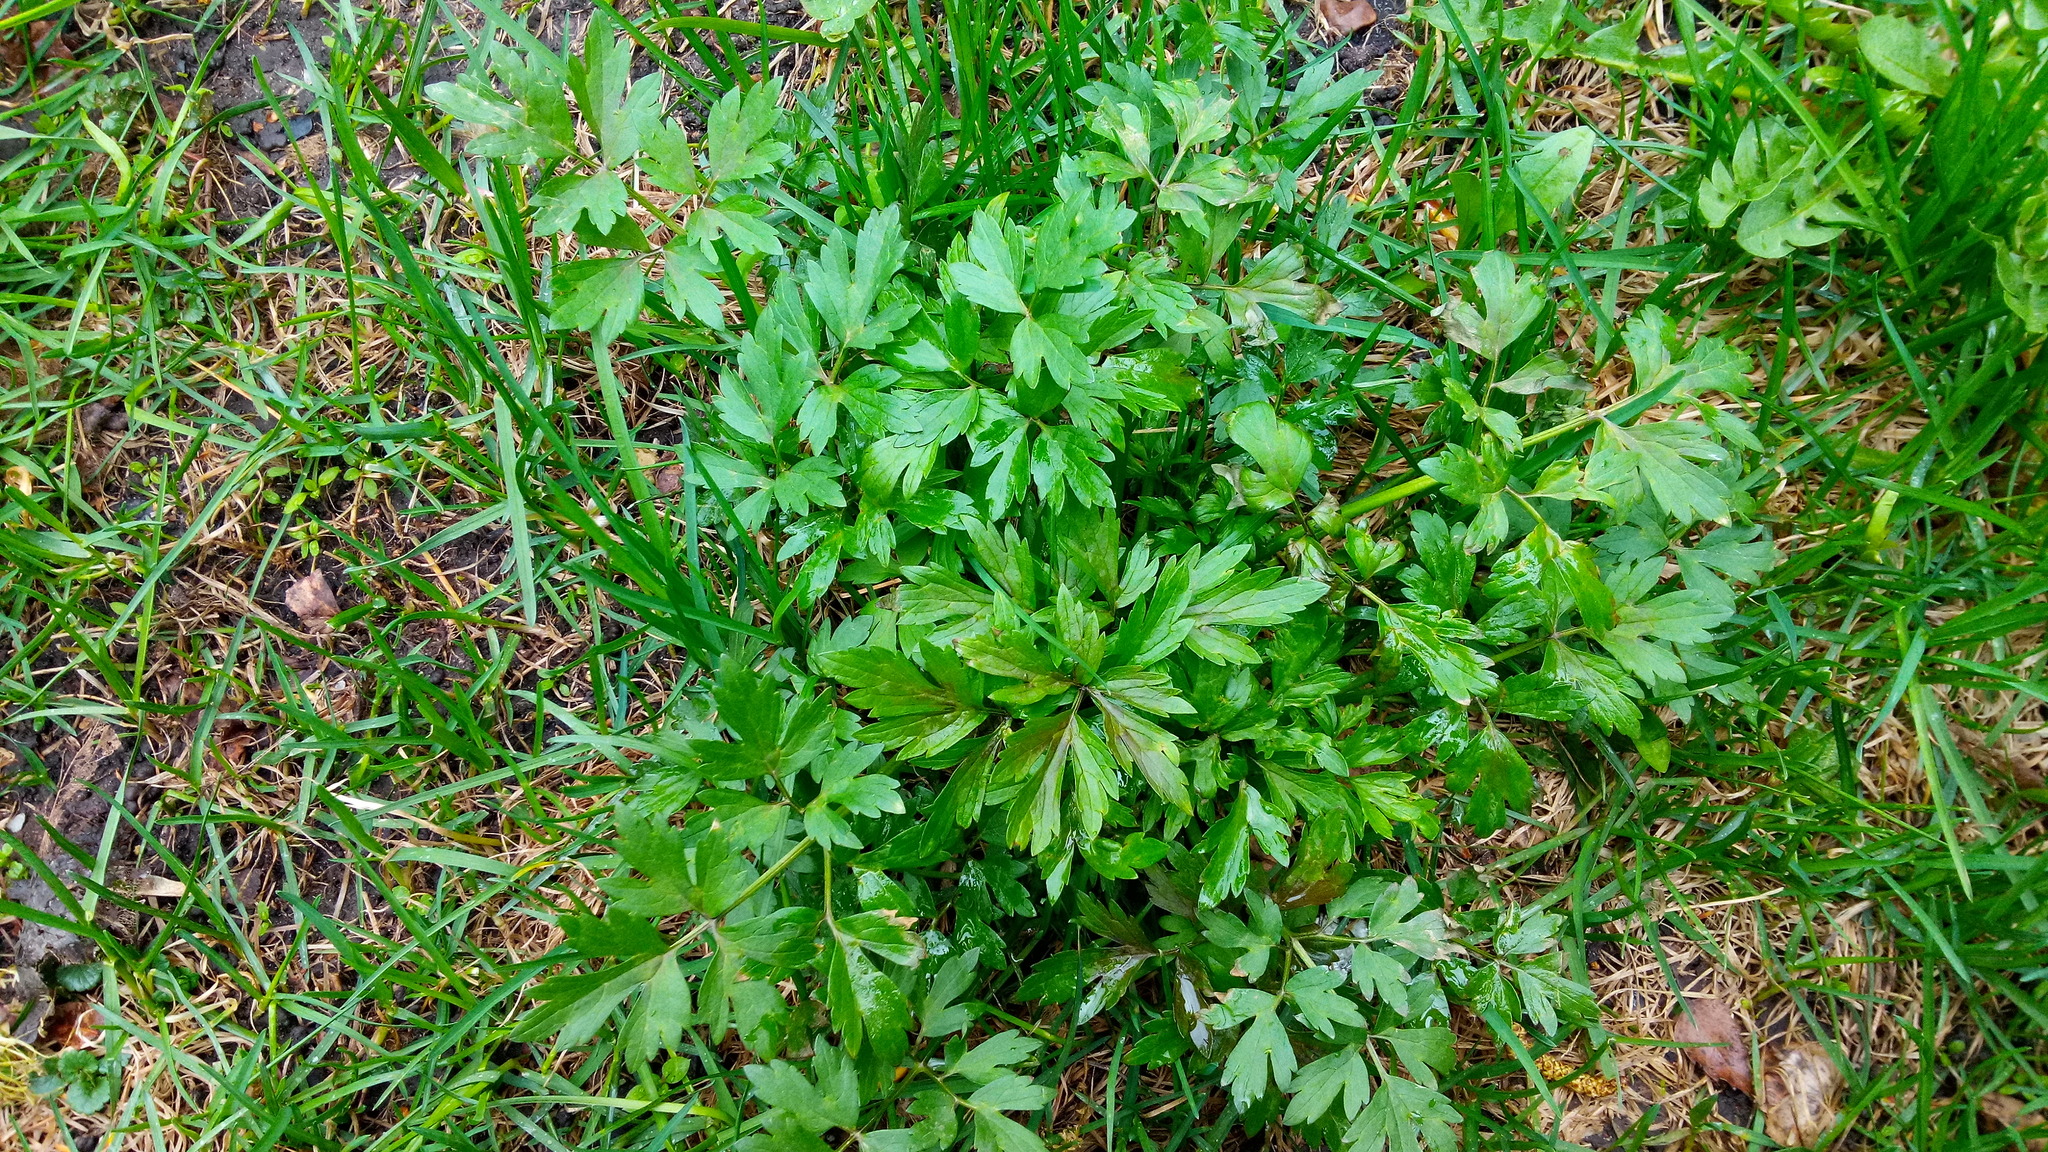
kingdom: Plantae
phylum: Tracheophyta
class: Magnoliopsida
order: Ranunculales
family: Ranunculaceae
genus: Ranunculus
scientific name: Ranunculus repens
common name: Creeping buttercup
